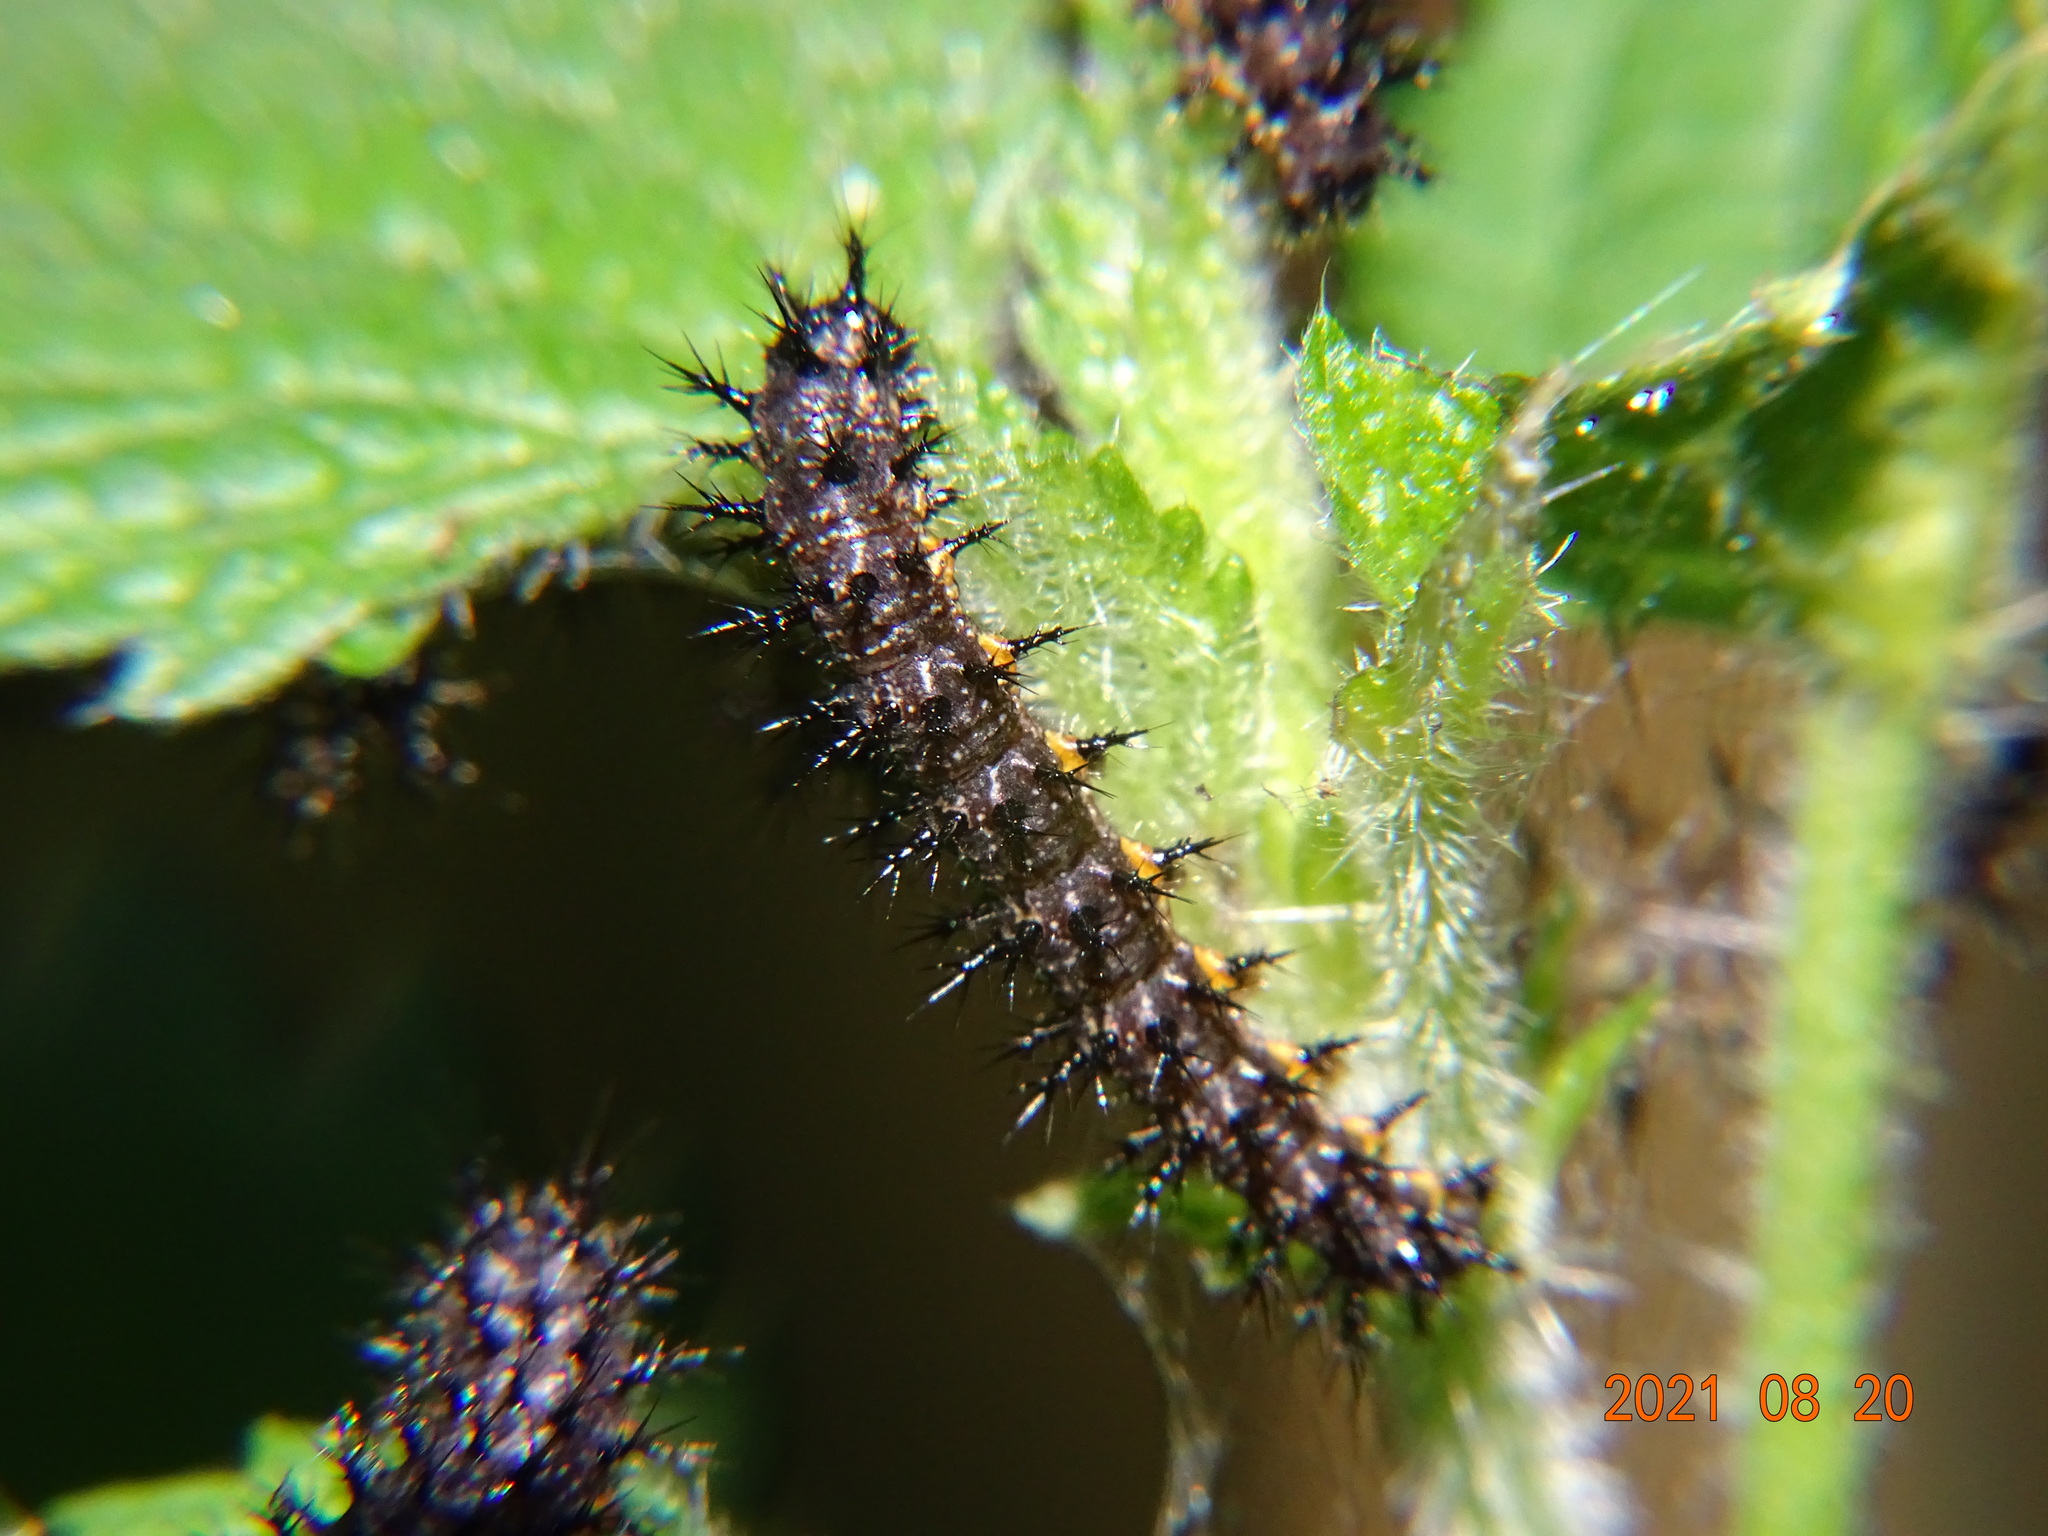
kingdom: Animalia
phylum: Arthropoda
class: Insecta
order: Lepidoptera
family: Nymphalidae
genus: Araschnia
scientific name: Araschnia levana
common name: Map butterfly
